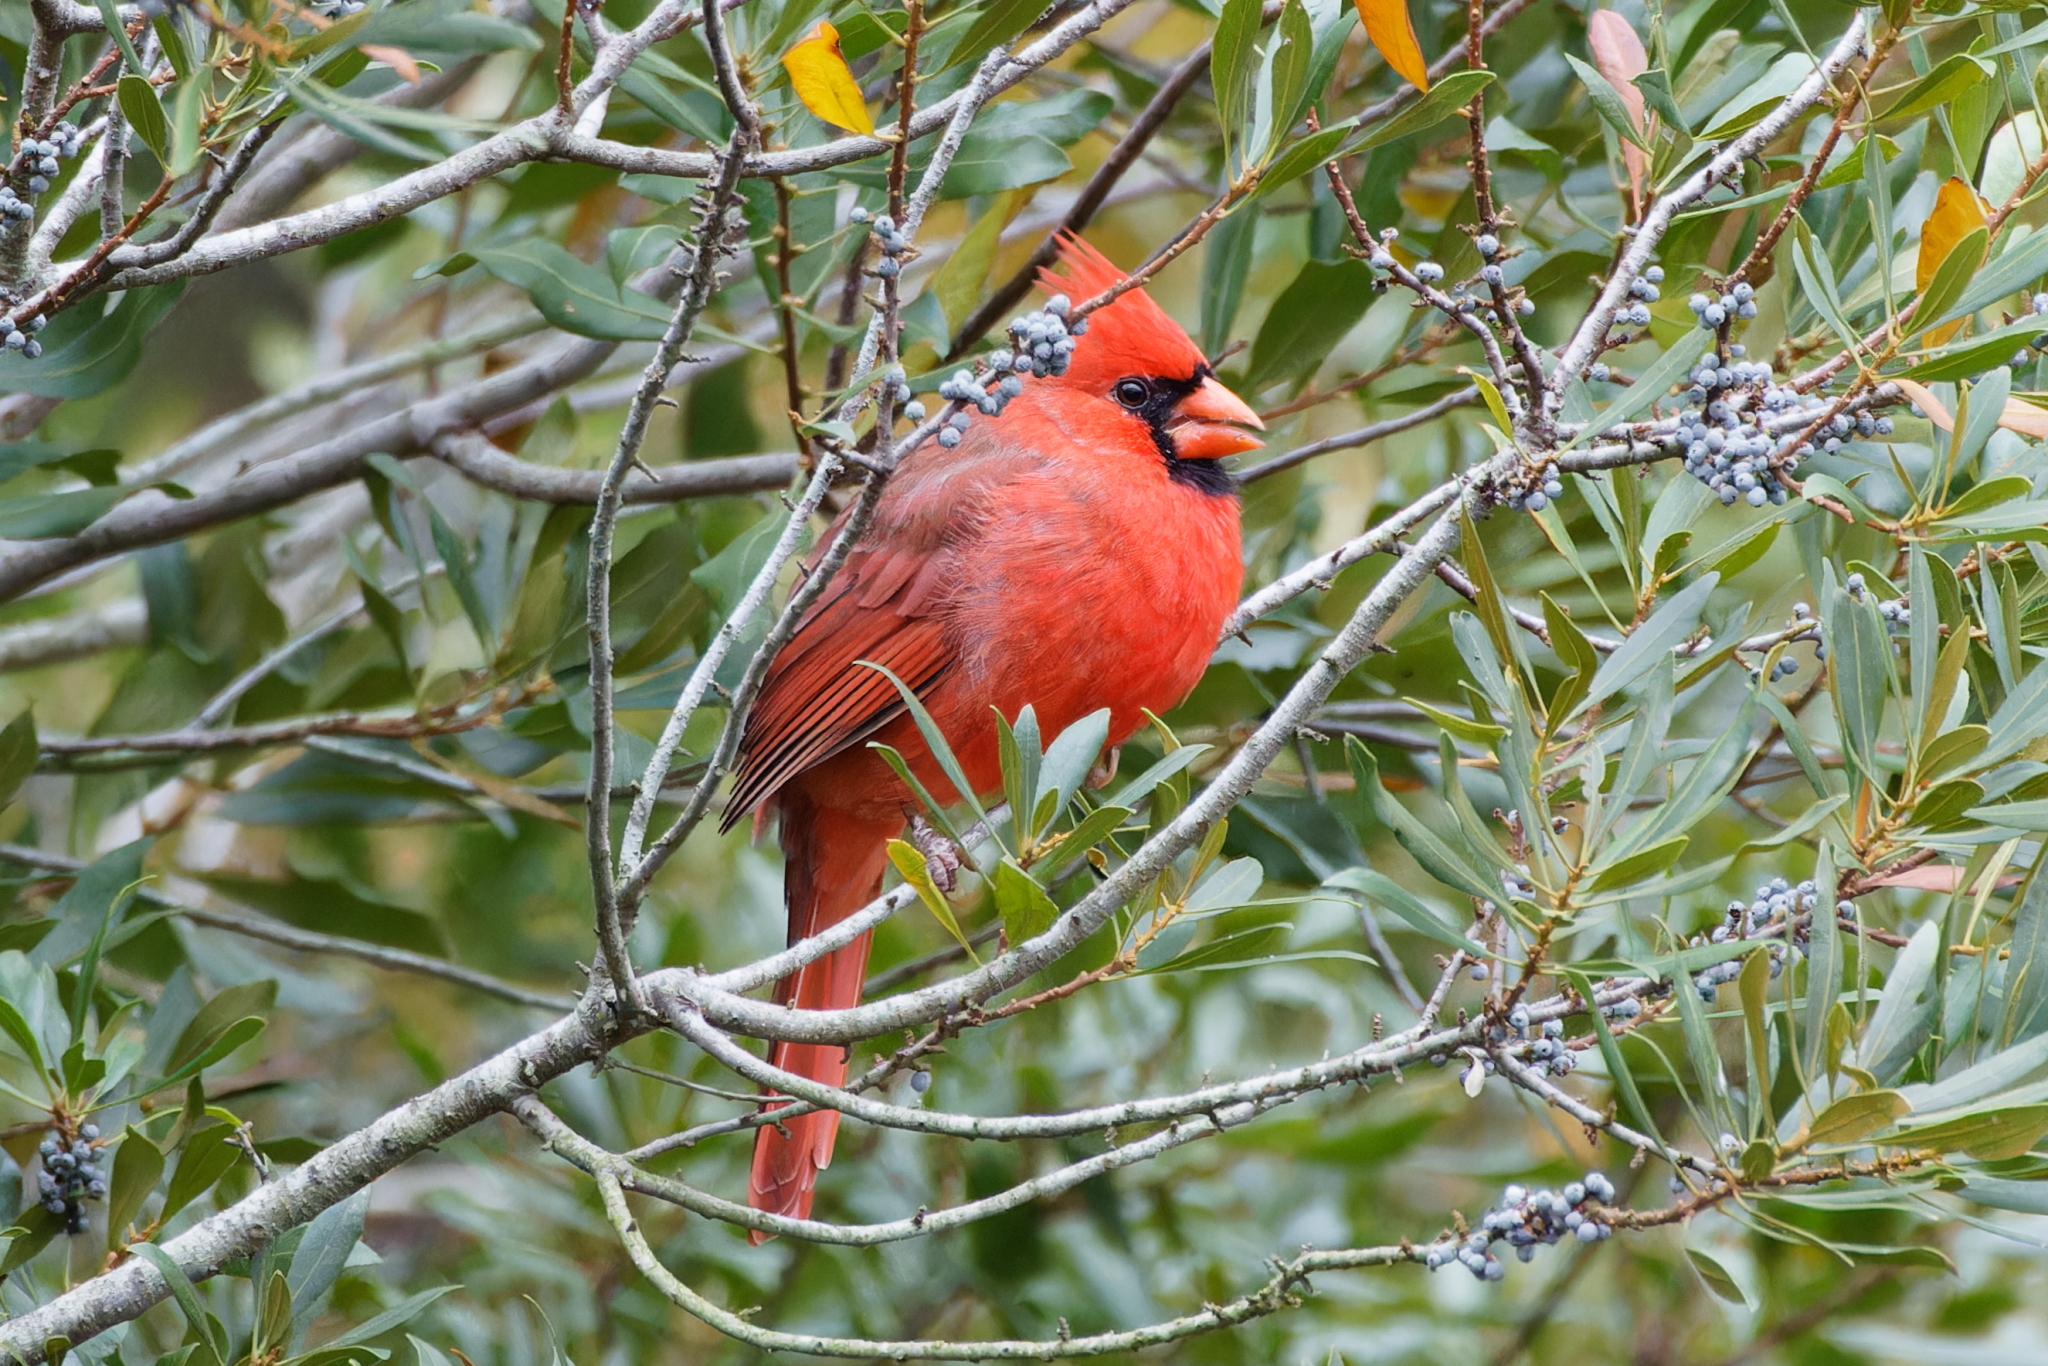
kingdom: Animalia
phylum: Chordata
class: Aves
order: Passeriformes
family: Cardinalidae
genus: Cardinalis
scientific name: Cardinalis cardinalis
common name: Northern cardinal
